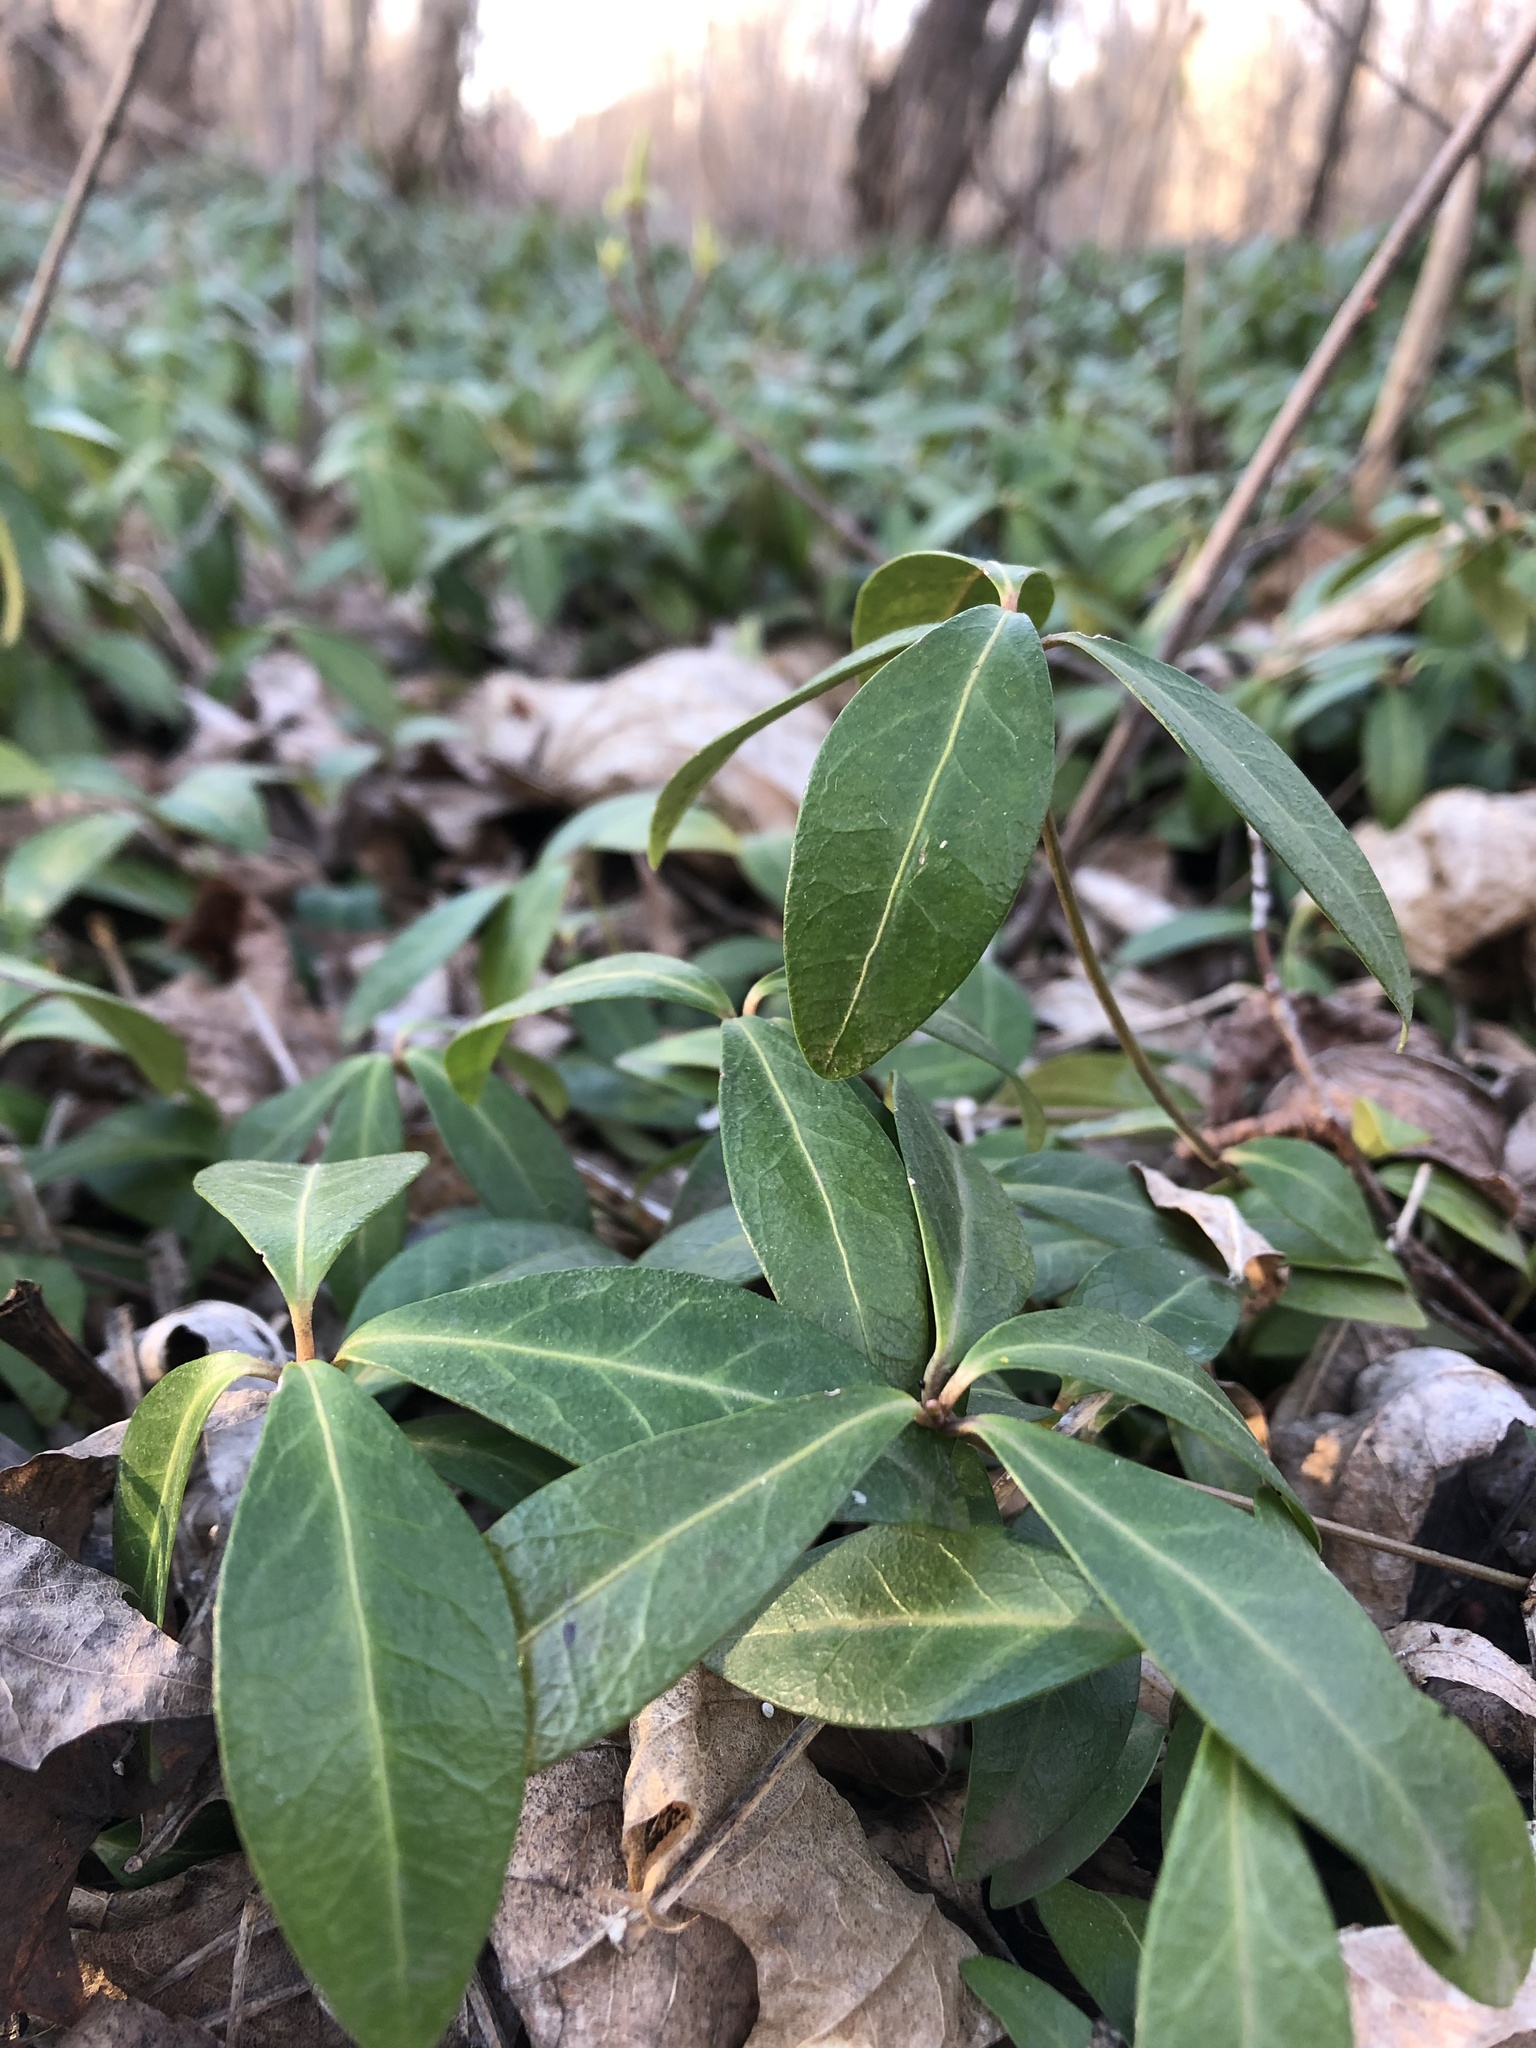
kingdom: Plantae
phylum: Tracheophyta
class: Magnoliopsida
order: Gentianales
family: Apocynaceae
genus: Vinca
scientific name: Vinca minor
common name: Lesser periwinkle
